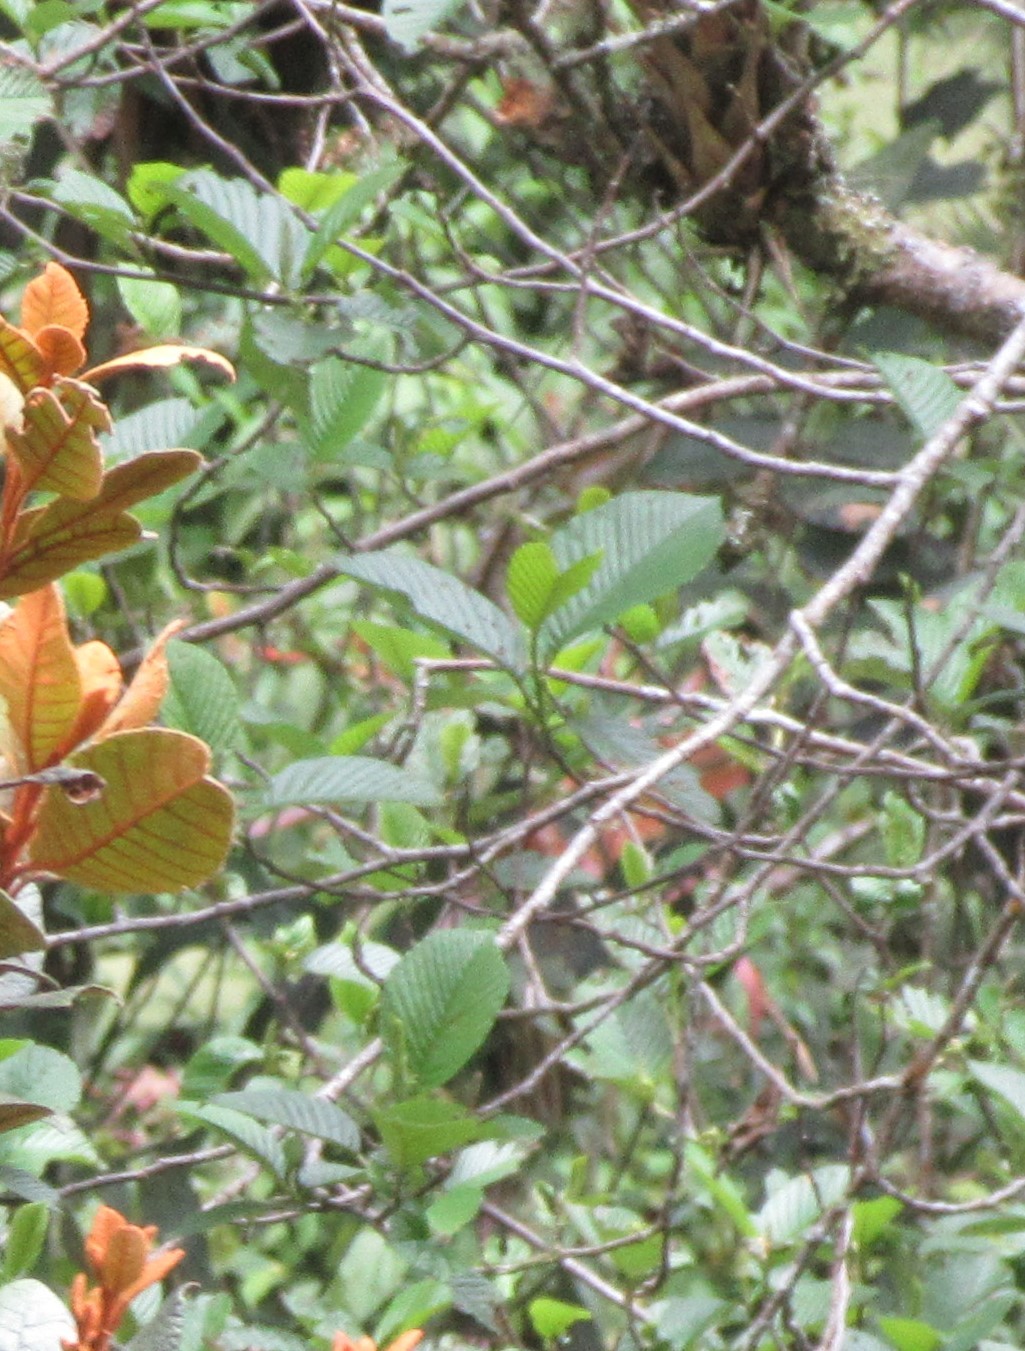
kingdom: Plantae
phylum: Tracheophyta
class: Magnoliopsida
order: Fagales
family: Betulaceae
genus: Alnus
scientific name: Alnus acuminata
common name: Alder
